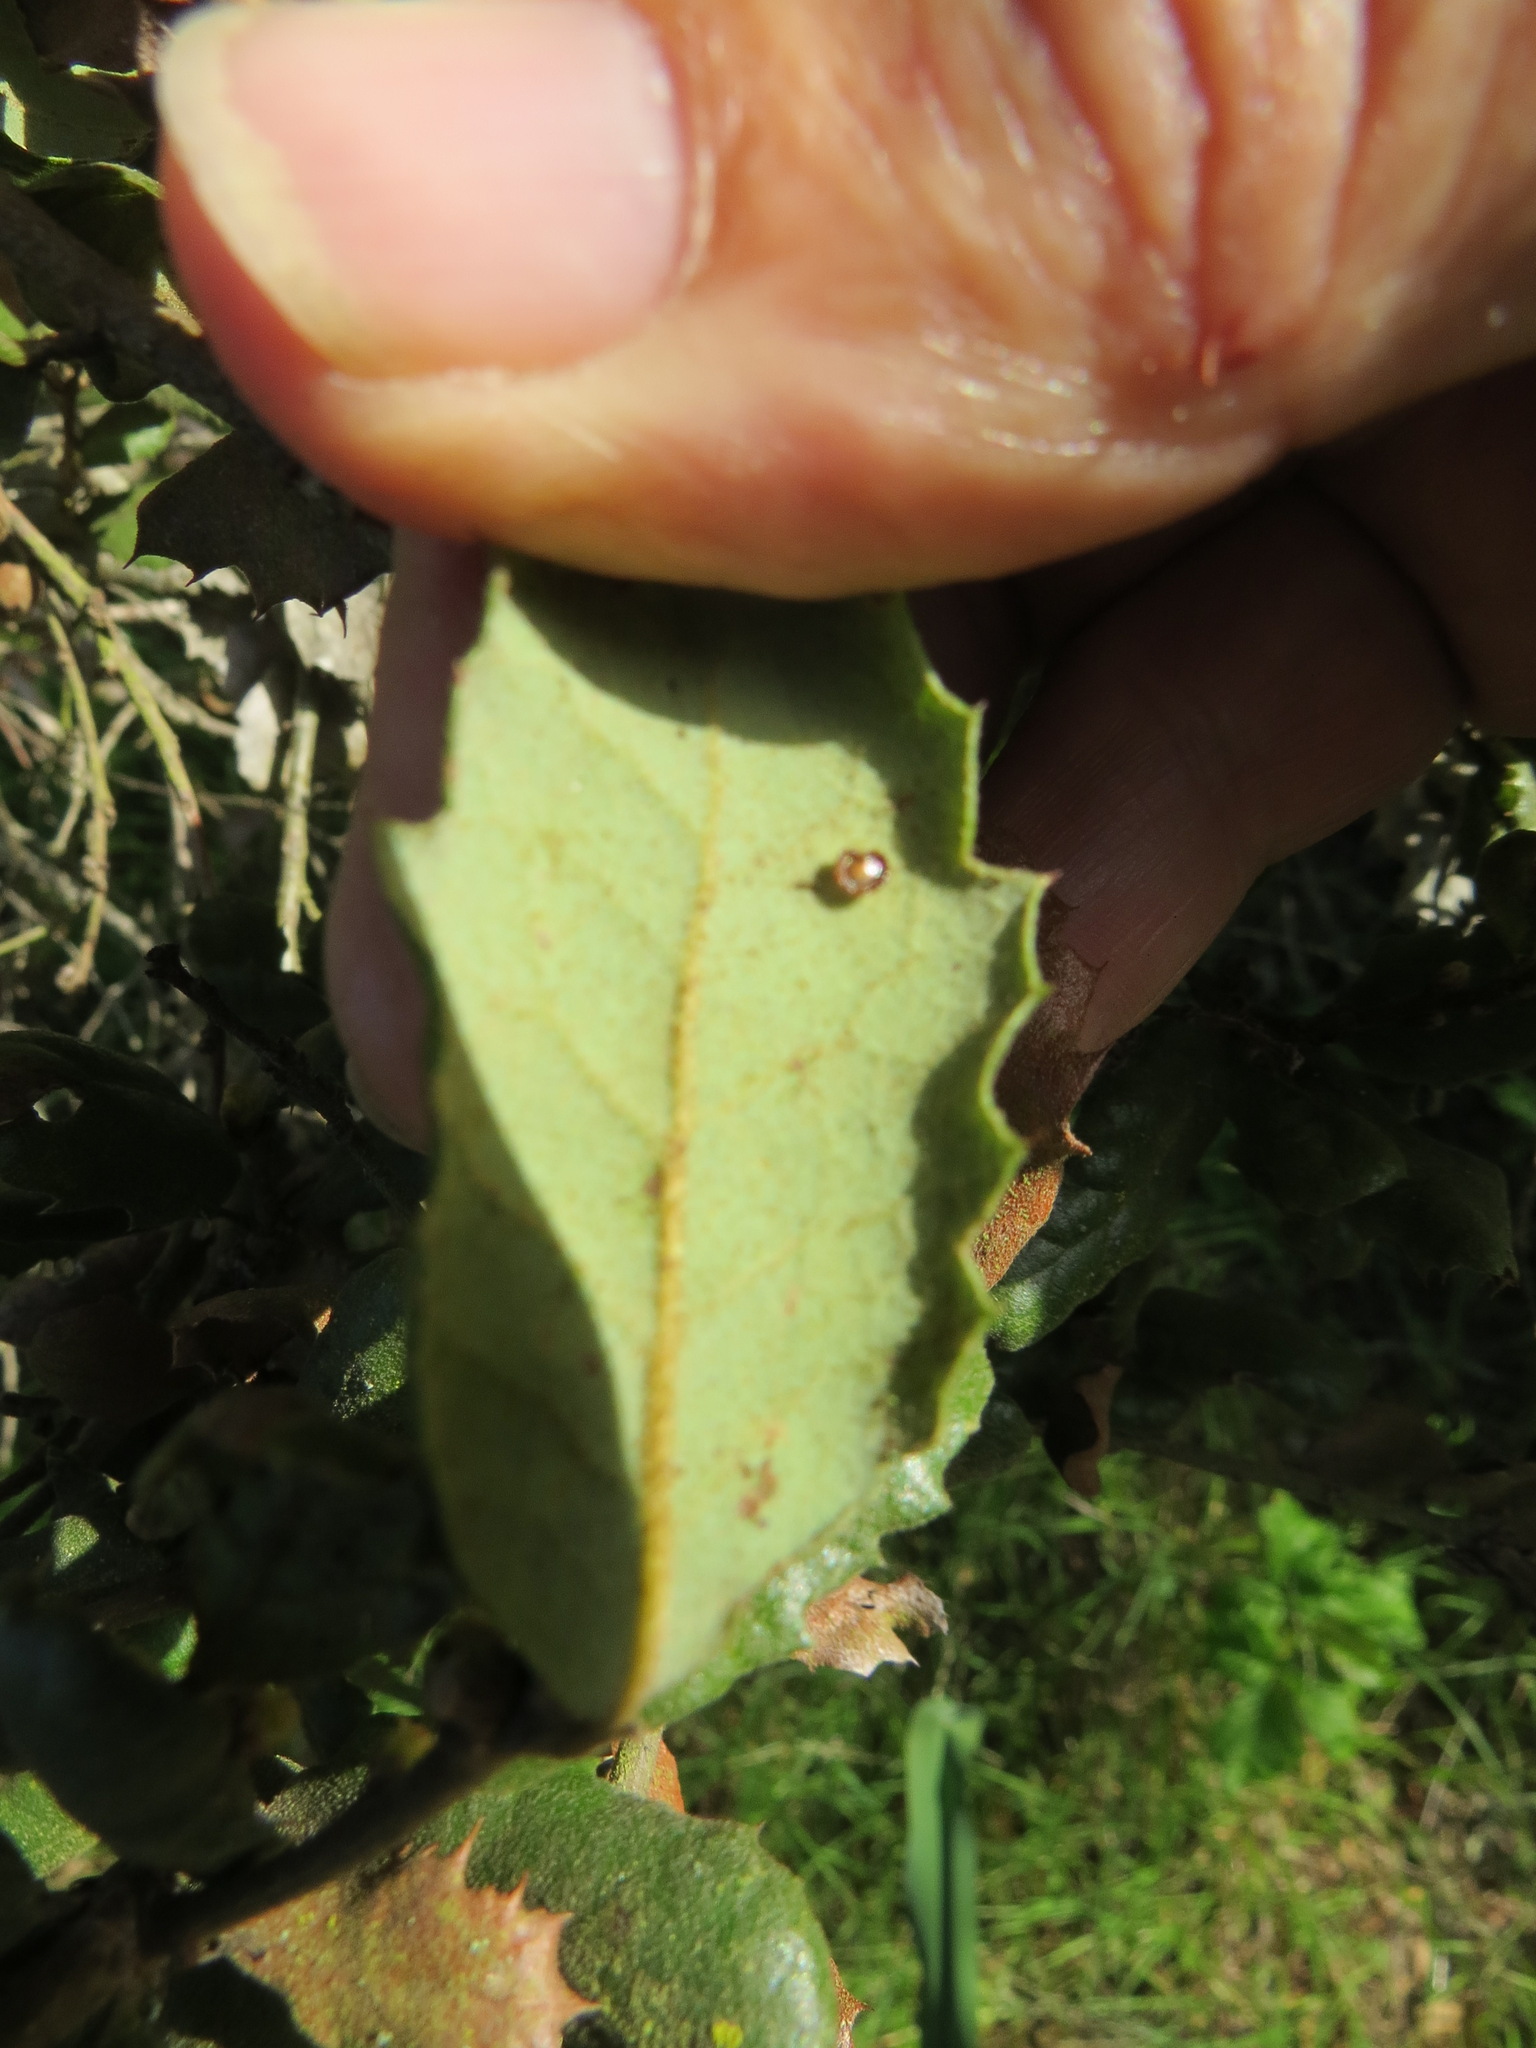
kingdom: Animalia
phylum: Arthropoda
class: Insecta
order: Hymenoptera
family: Cynipidae
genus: Andricus
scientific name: Andricus
